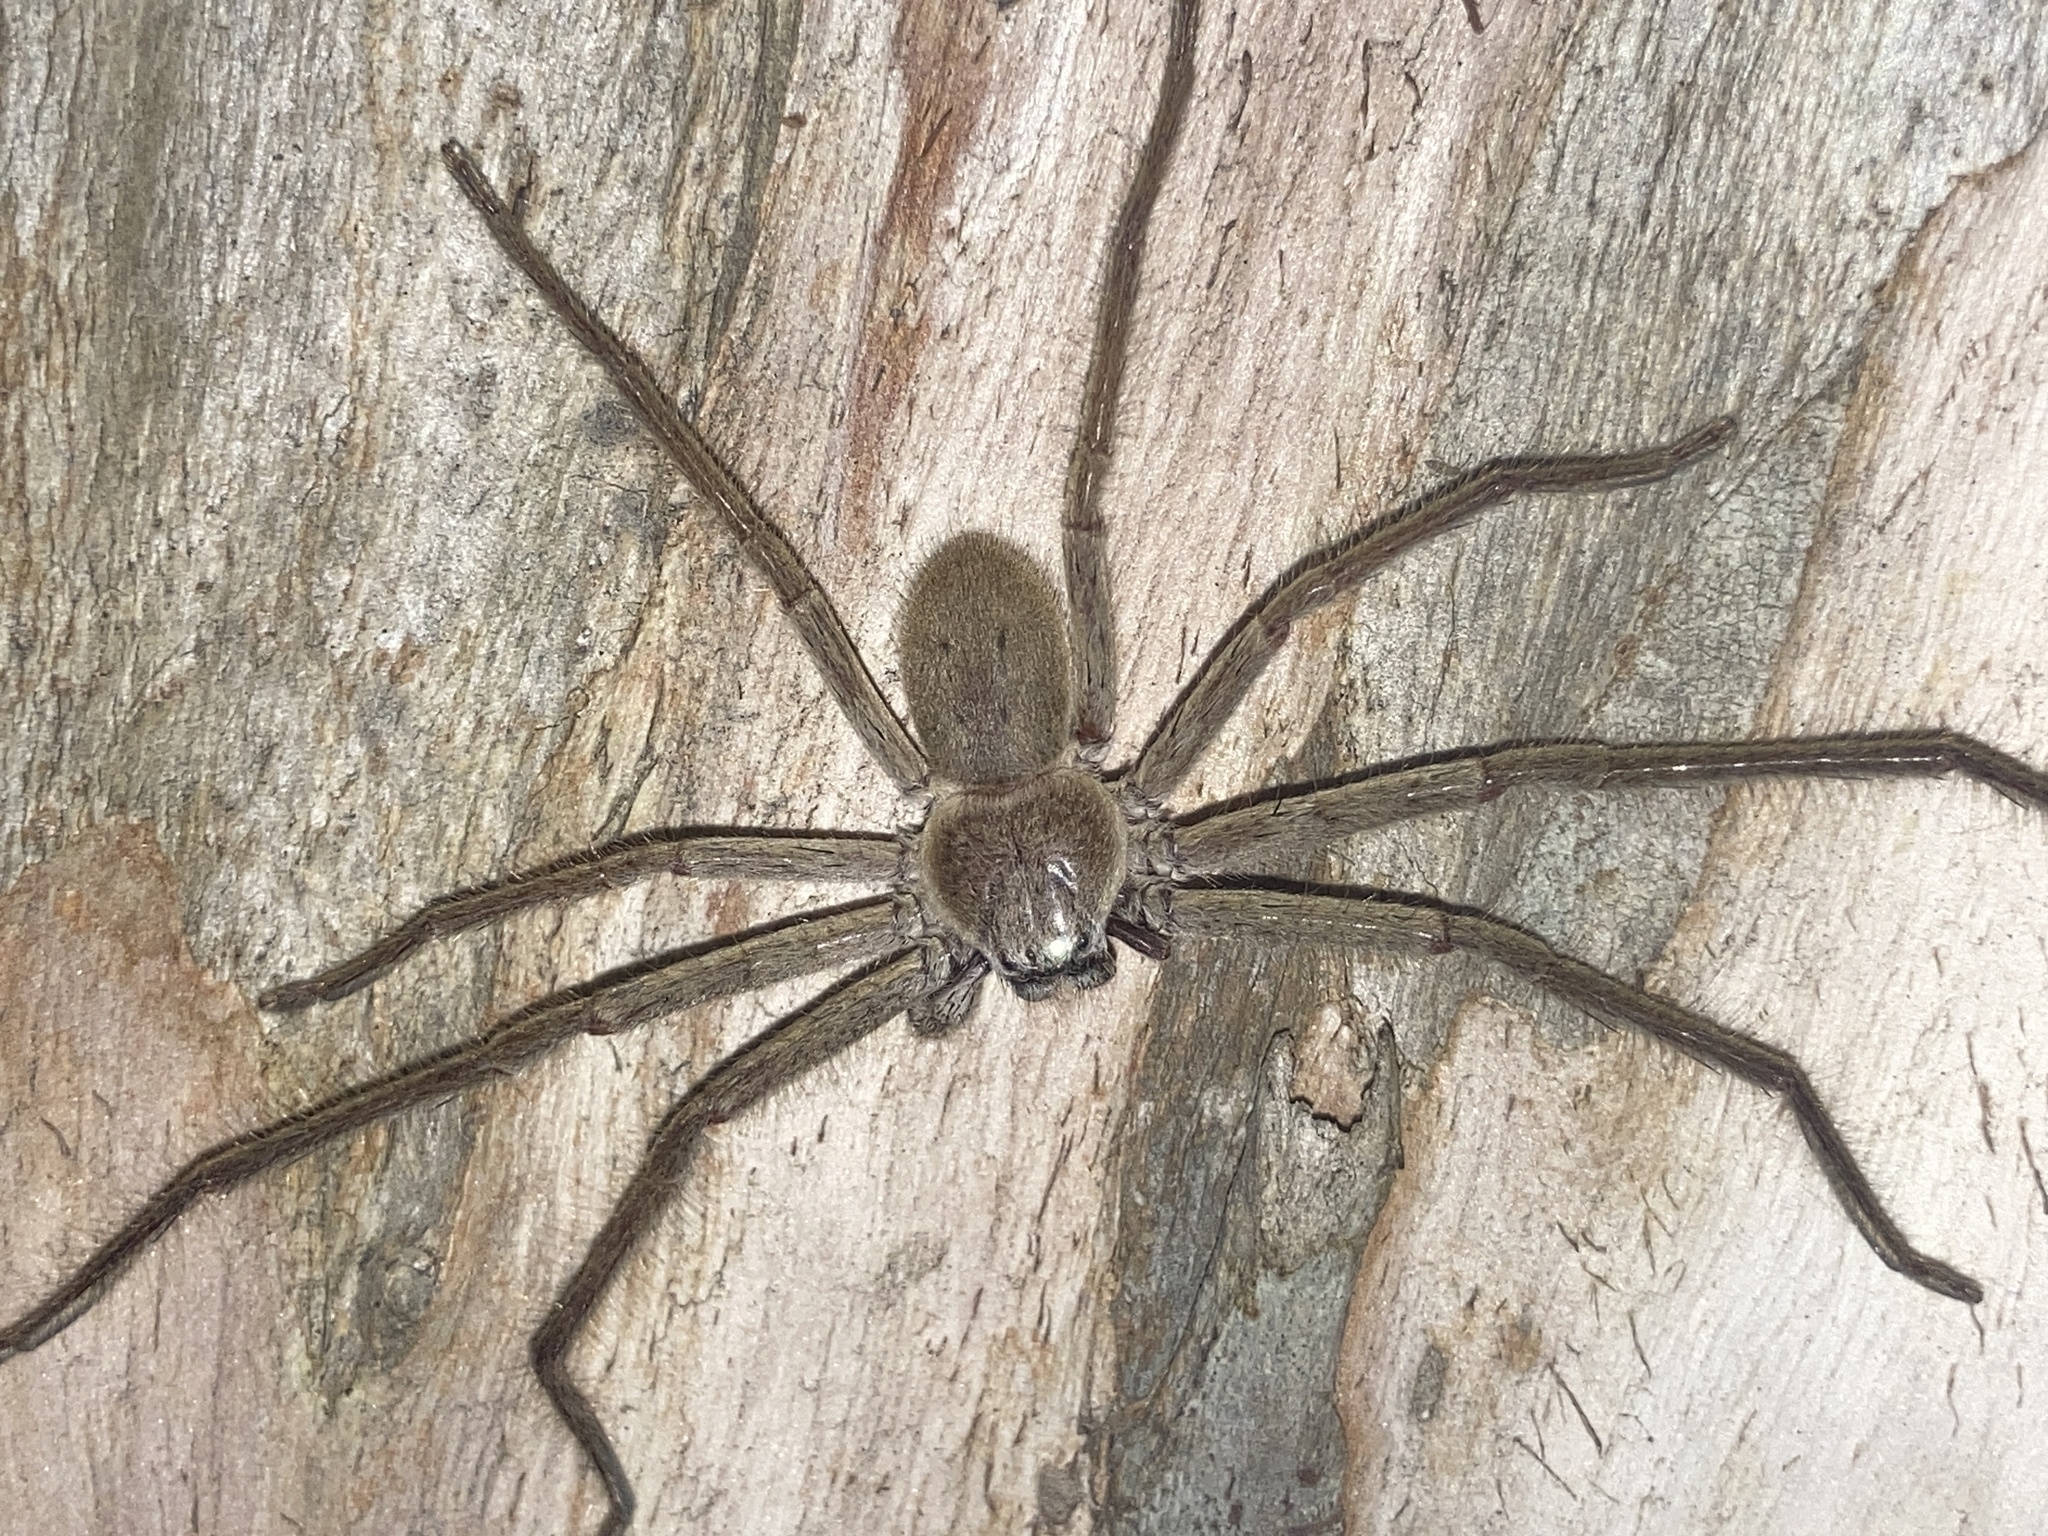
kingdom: Animalia
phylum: Arthropoda
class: Arachnida
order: Araneae
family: Sparassidae
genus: Isopeda
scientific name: Isopeda villosa
